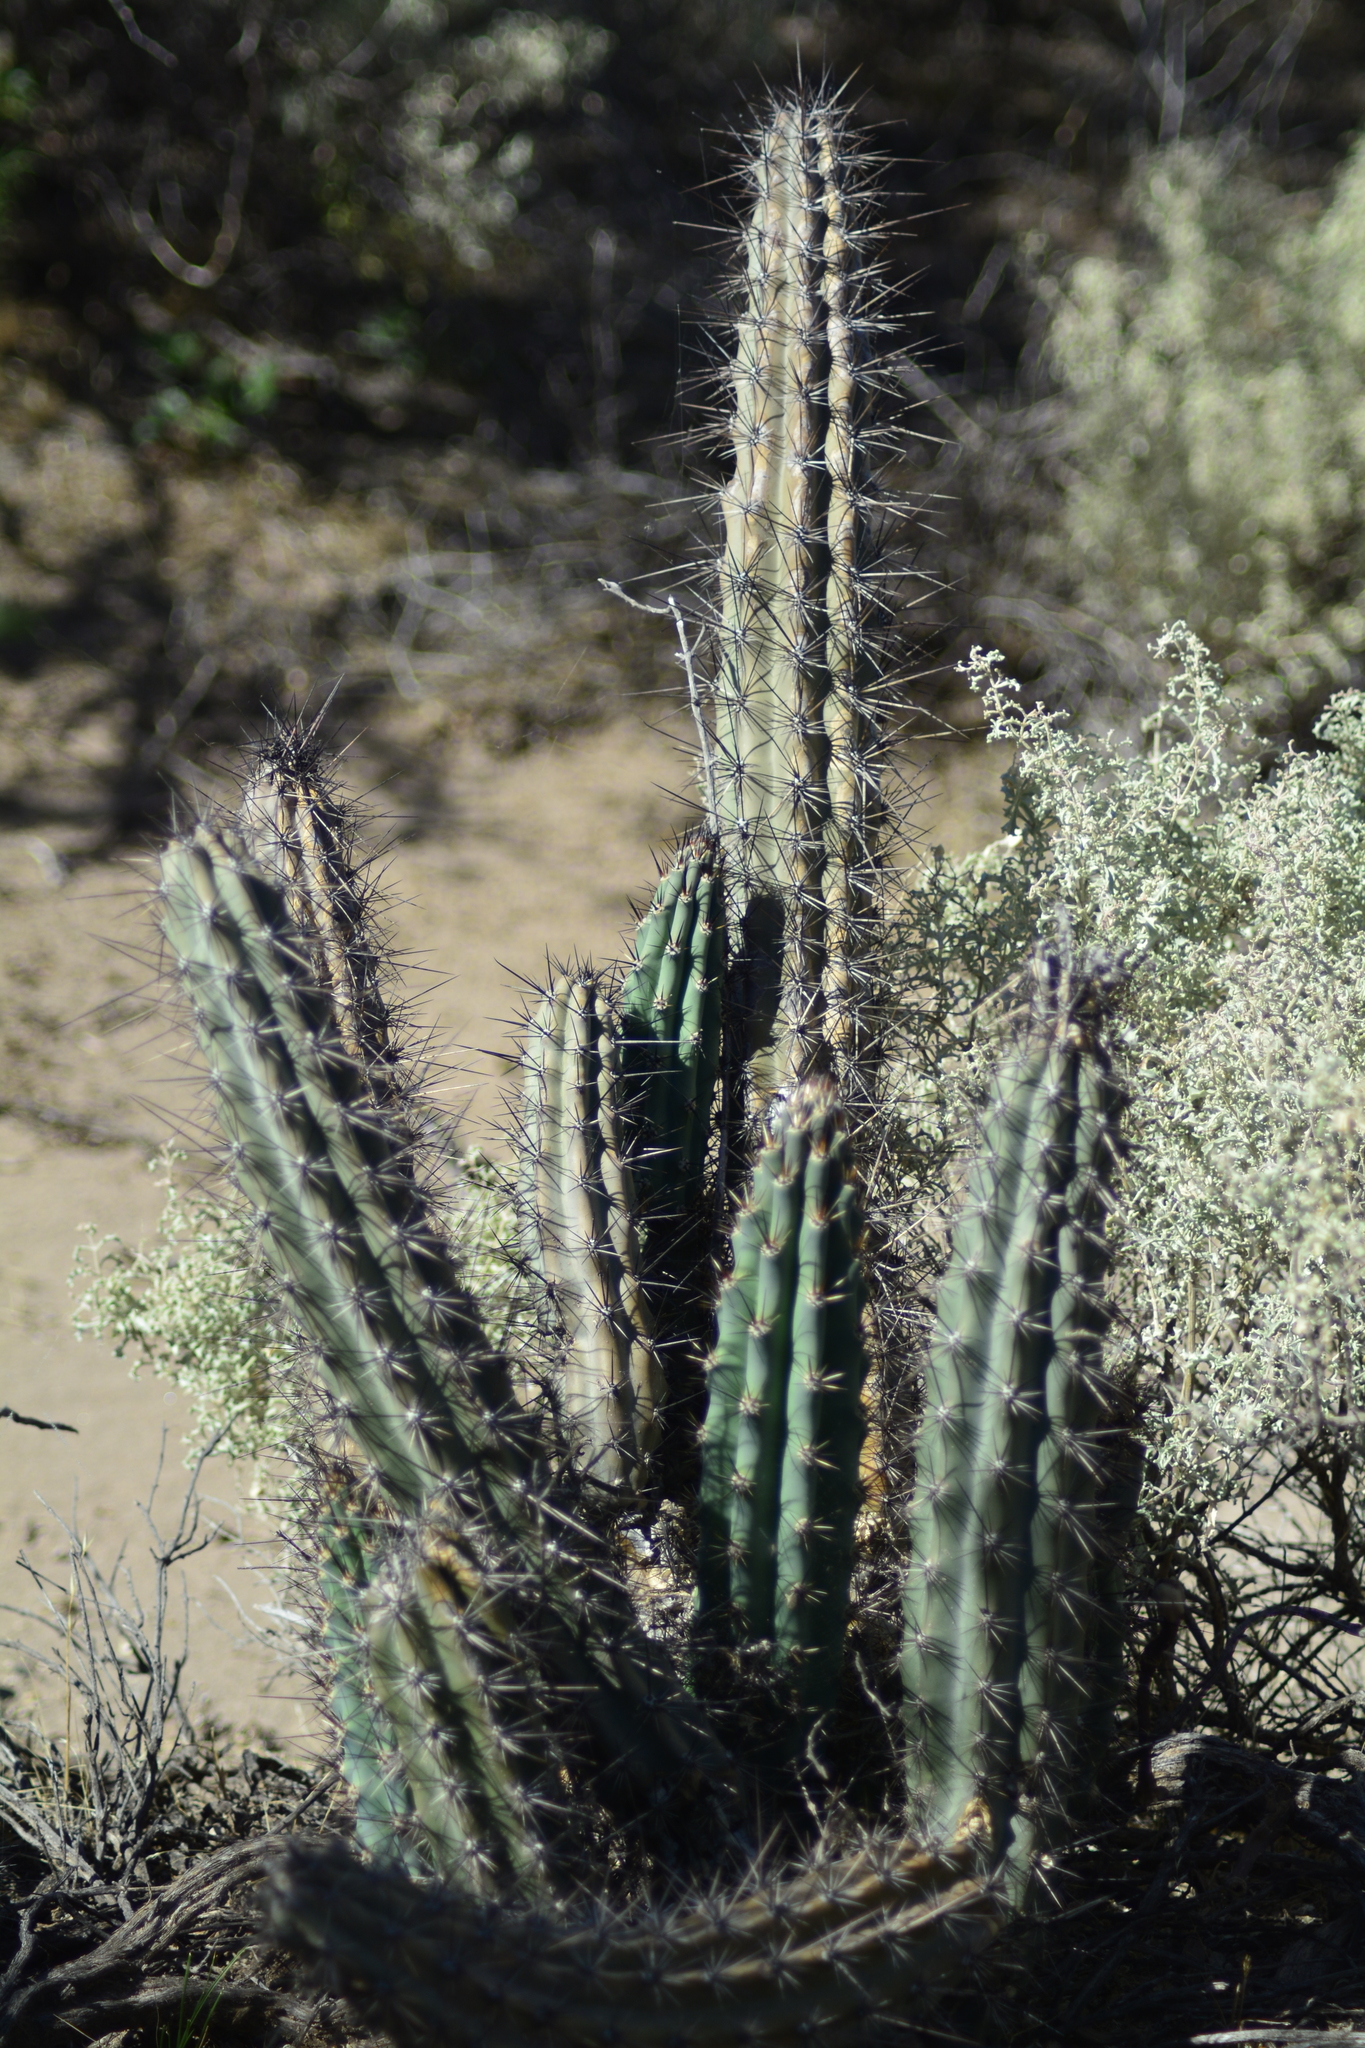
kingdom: Plantae
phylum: Tracheophyta
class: Magnoliopsida
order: Caryophyllales
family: Cactaceae
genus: Cereus
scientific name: Cereus aethiops
